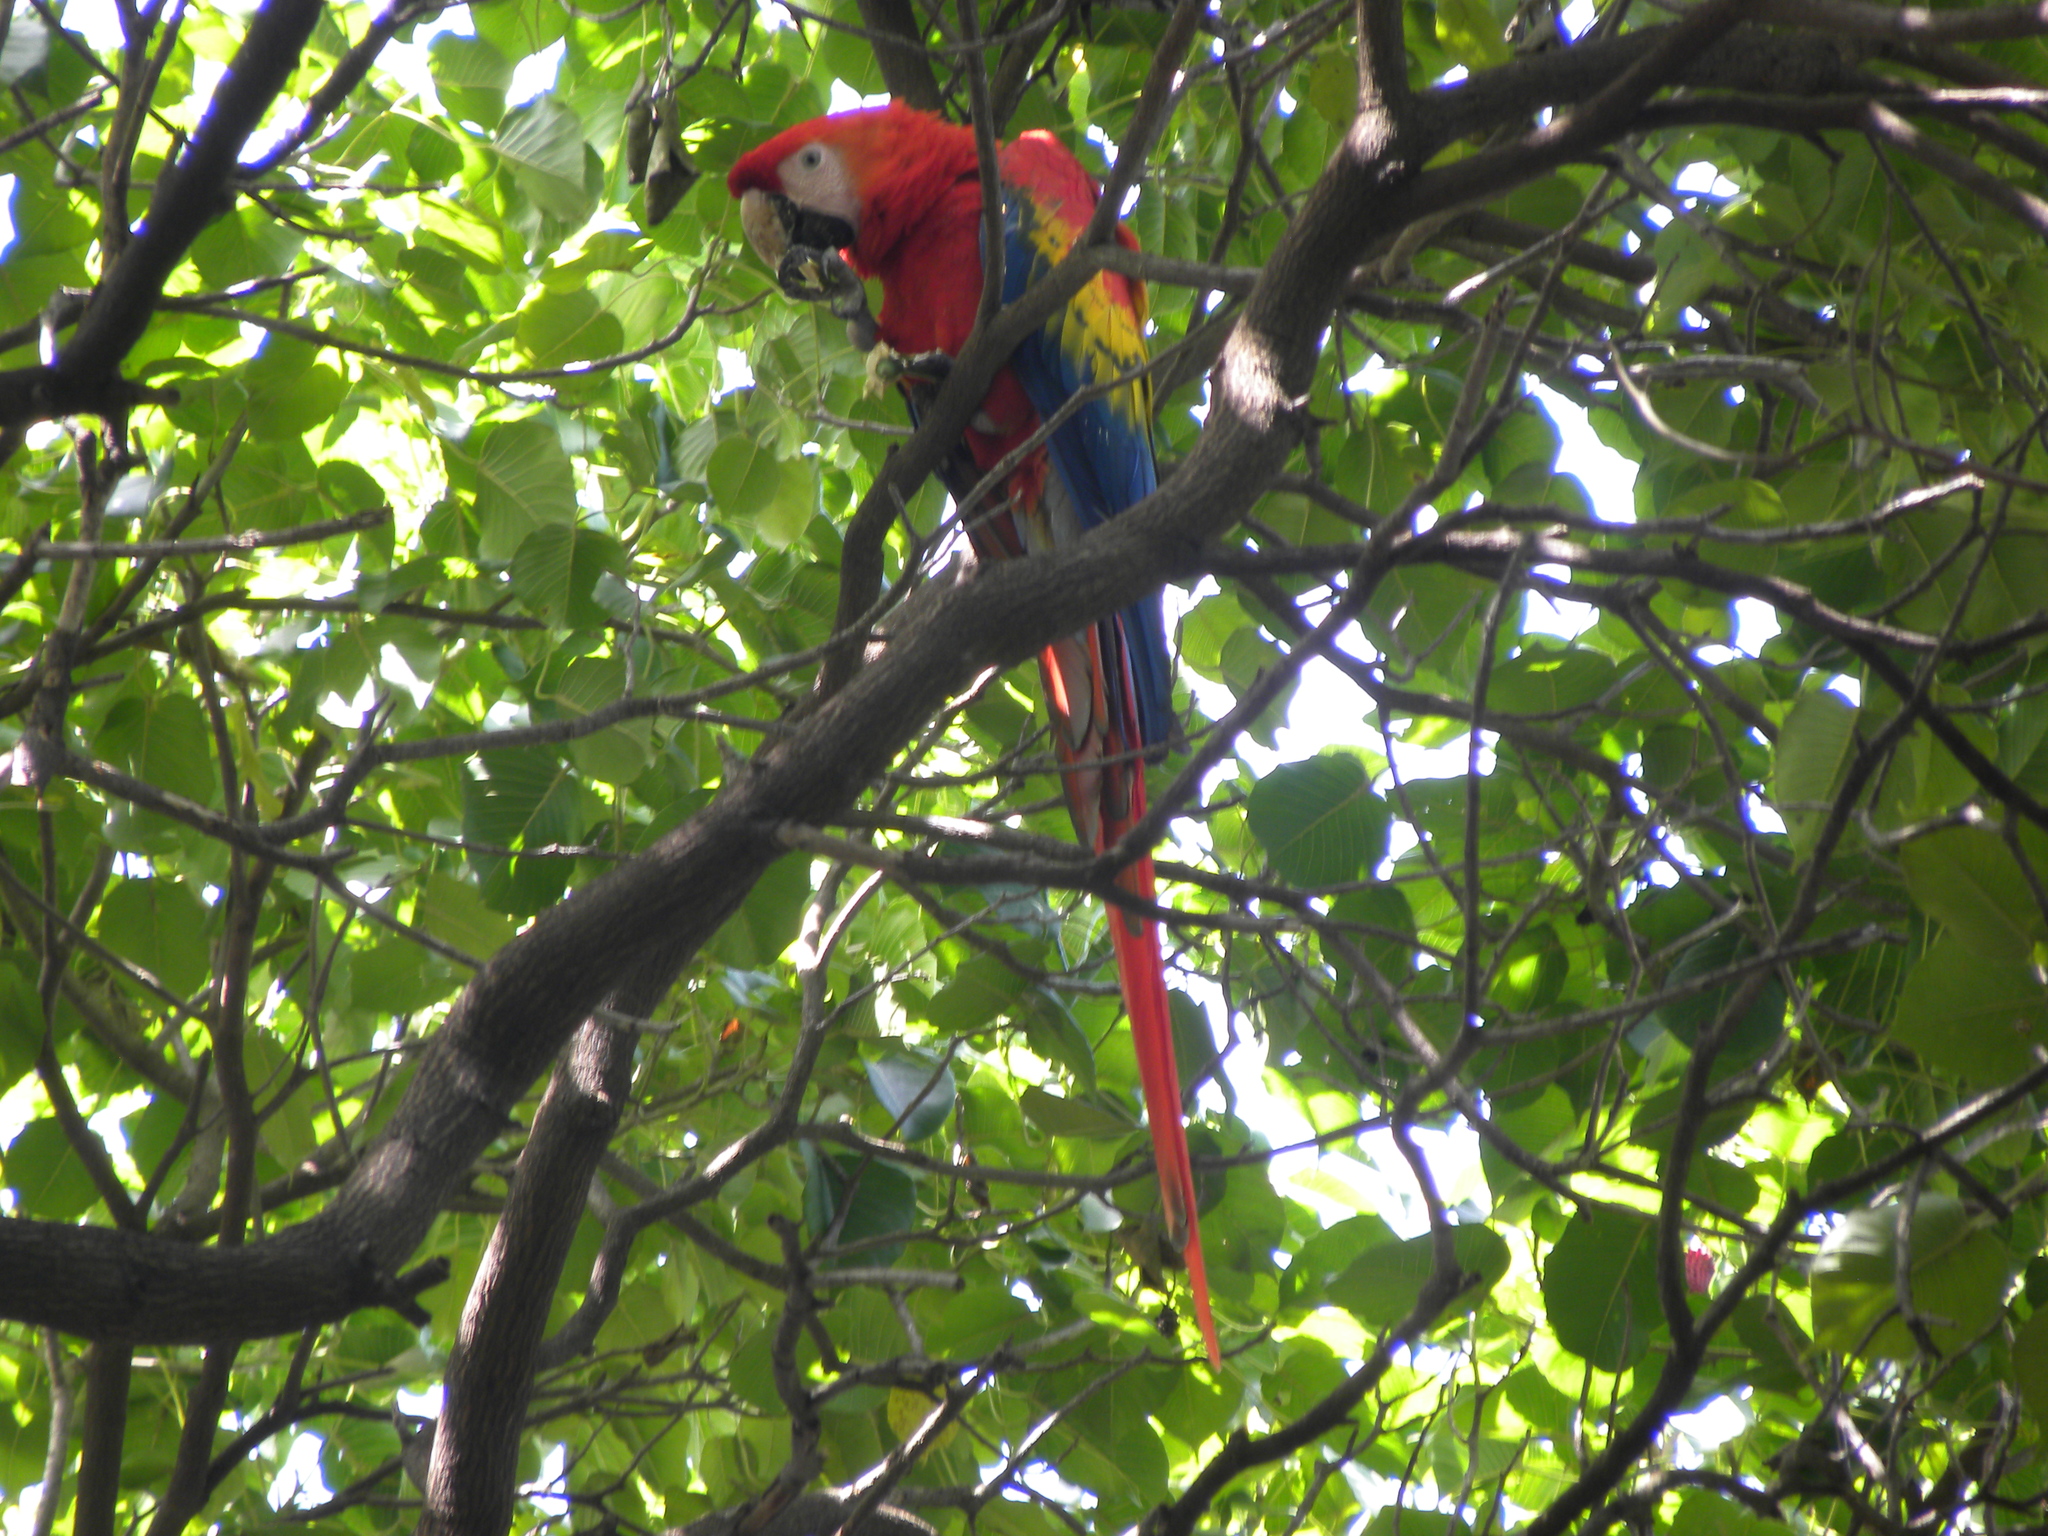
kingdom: Animalia
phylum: Chordata
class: Aves
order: Psittaciformes
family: Psittacidae
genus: Ara
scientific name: Ara macao
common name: Scarlet macaw
